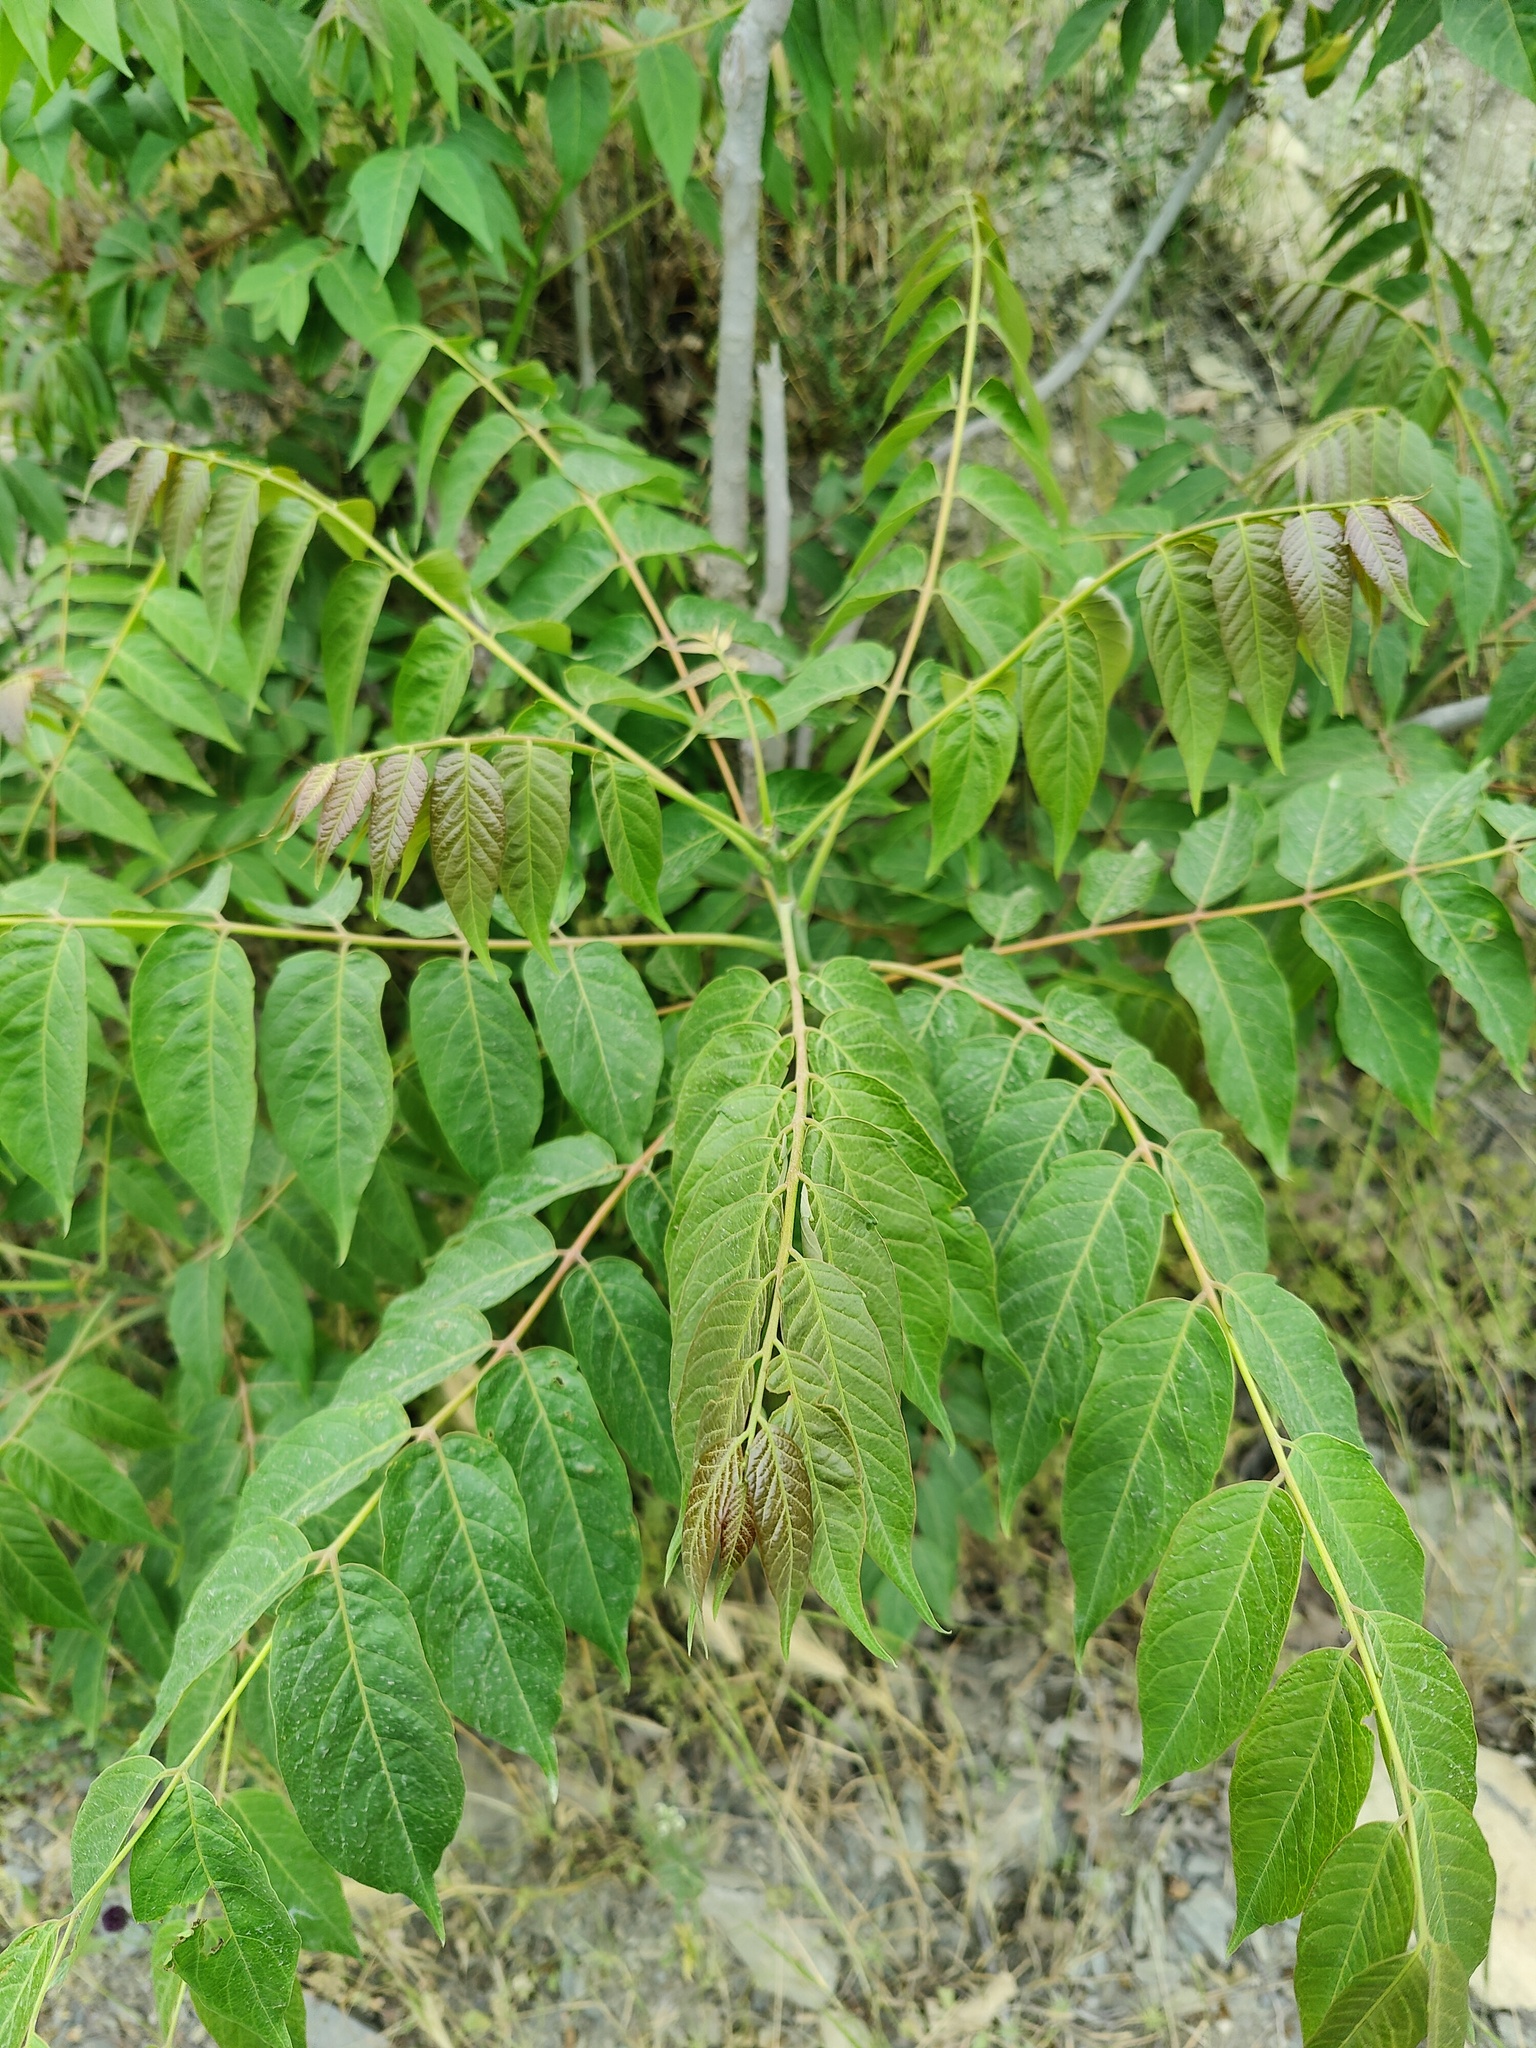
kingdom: Plantae
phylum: Tracheophyta
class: Magnoliopsida
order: Sapindales
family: Simaroubaceae
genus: Ailanthus
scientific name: Ailanthus altissima
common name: Tree-of-heaven
